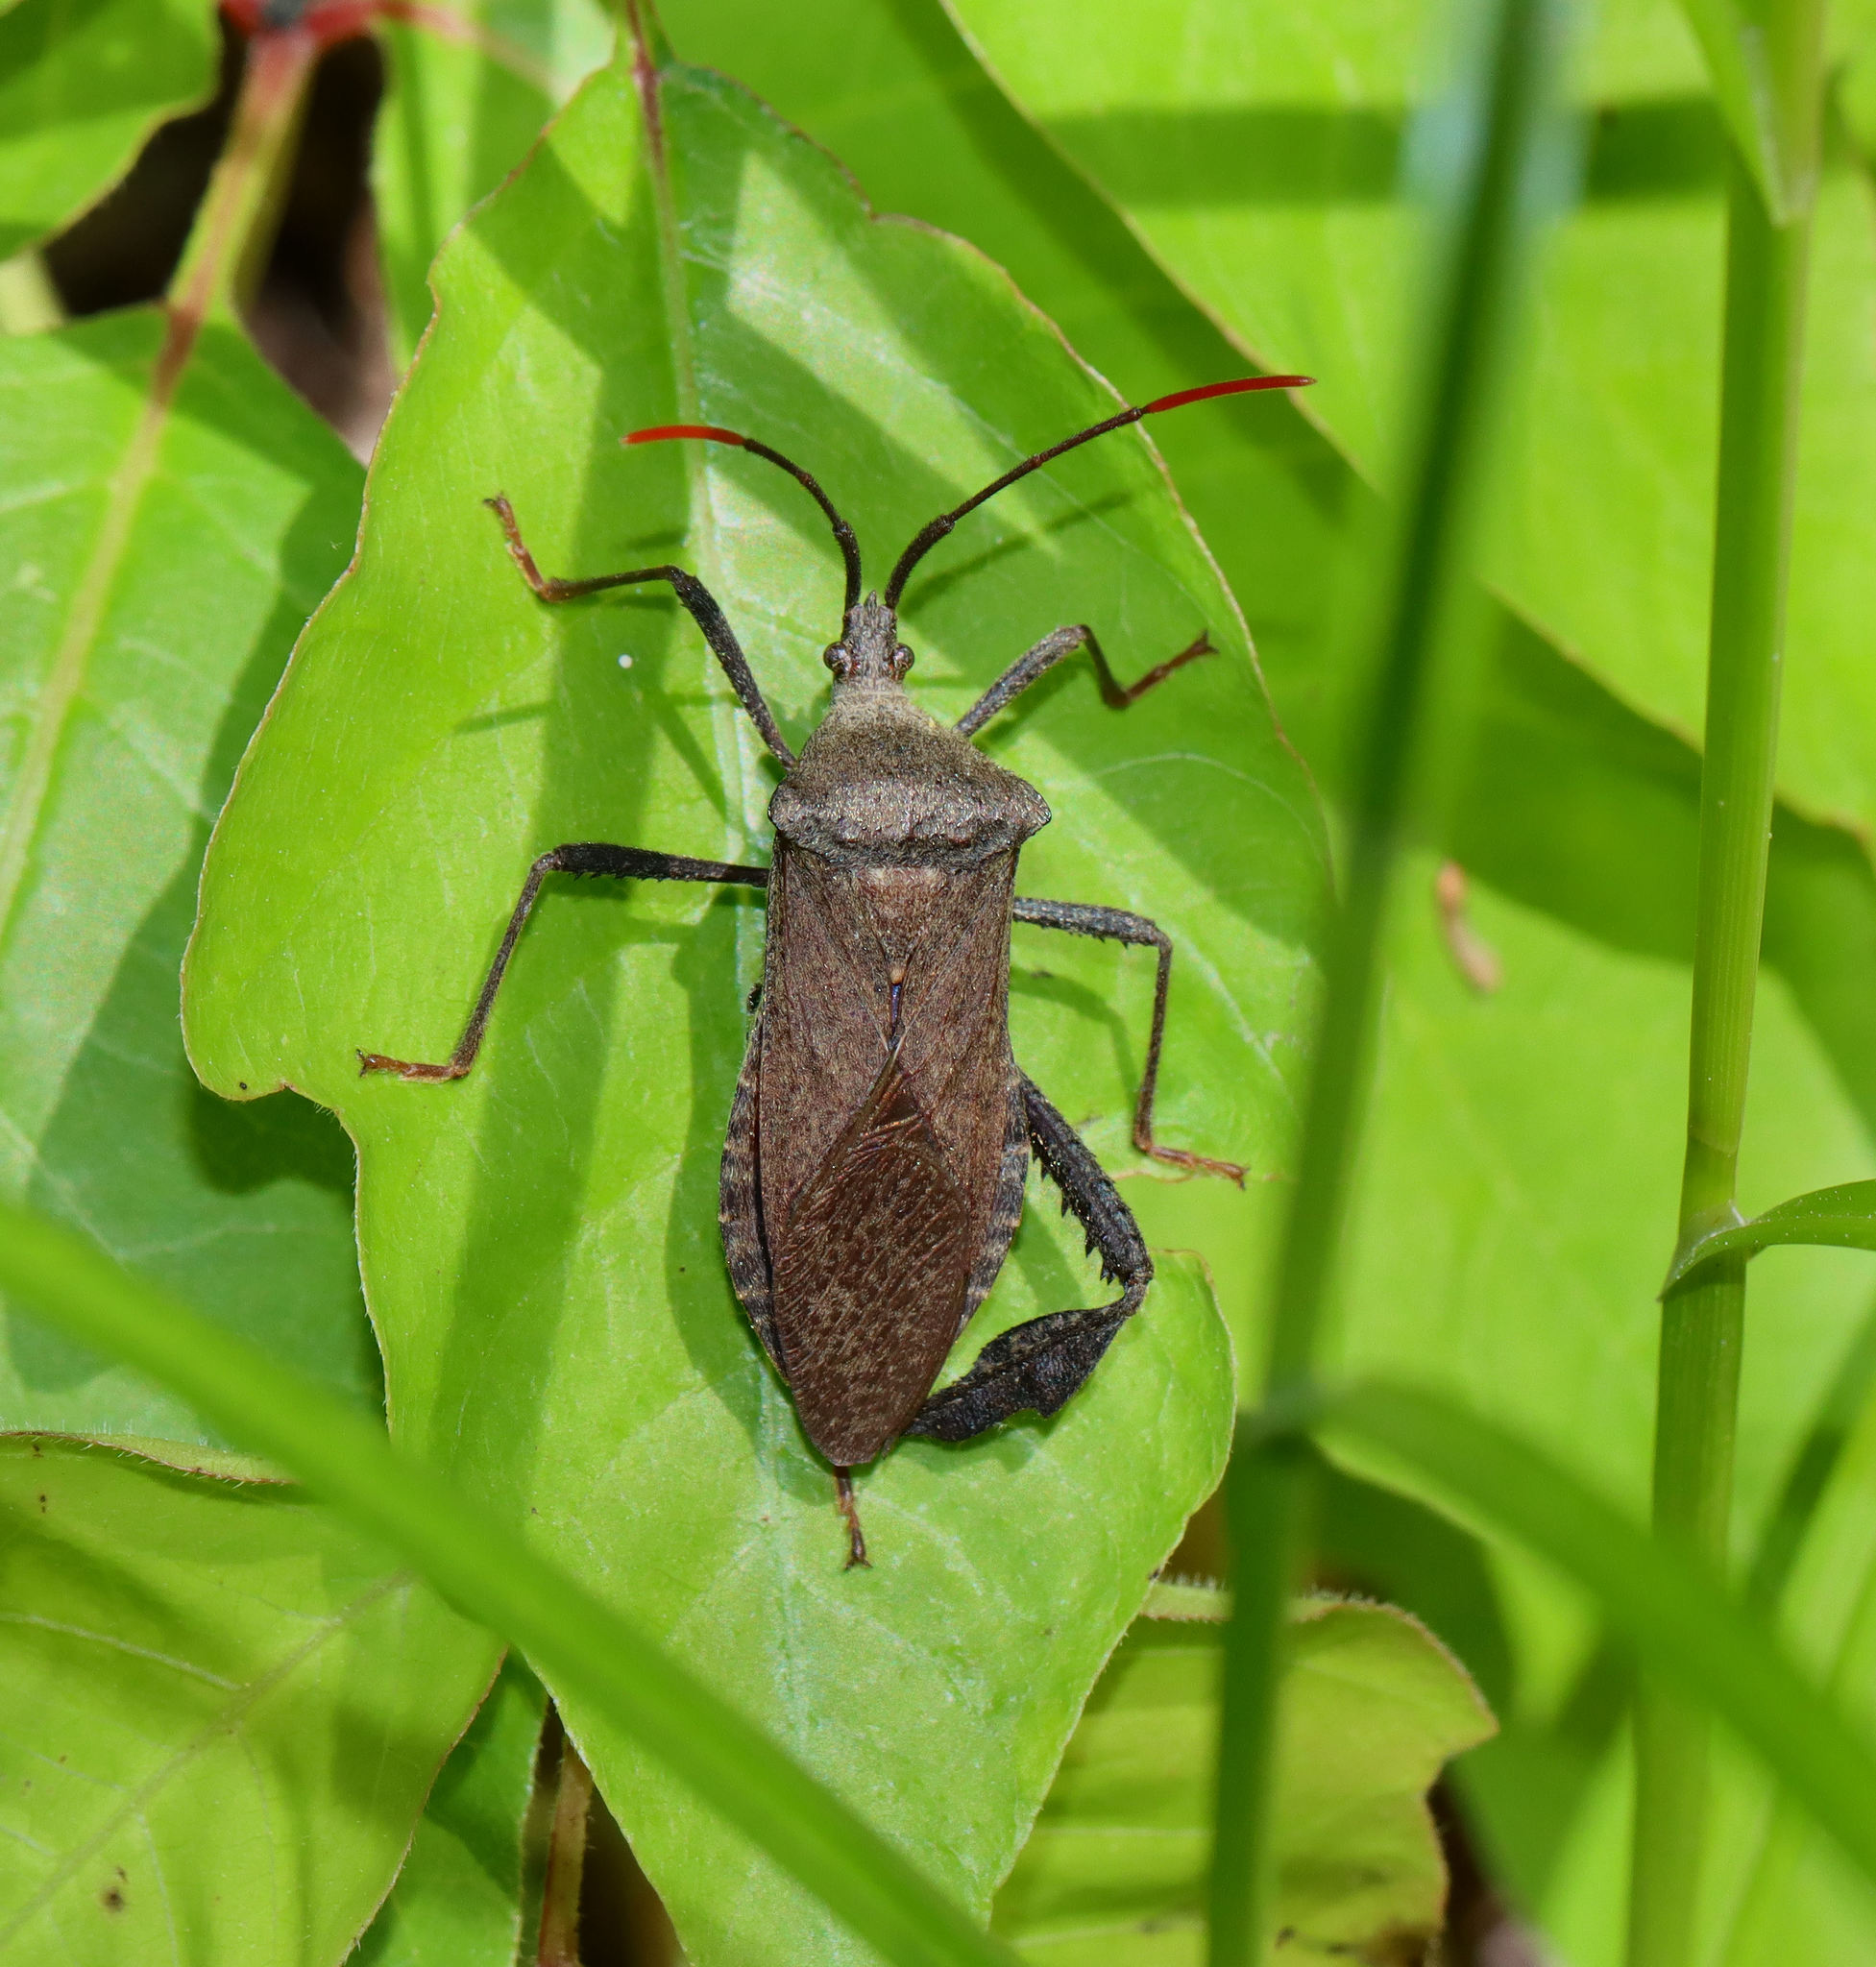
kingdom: Animalia
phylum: Arthropoda
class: Insecta
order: Hemiptera
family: Coreidae
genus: Acanthocephala
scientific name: Acanthocephala terminalis
